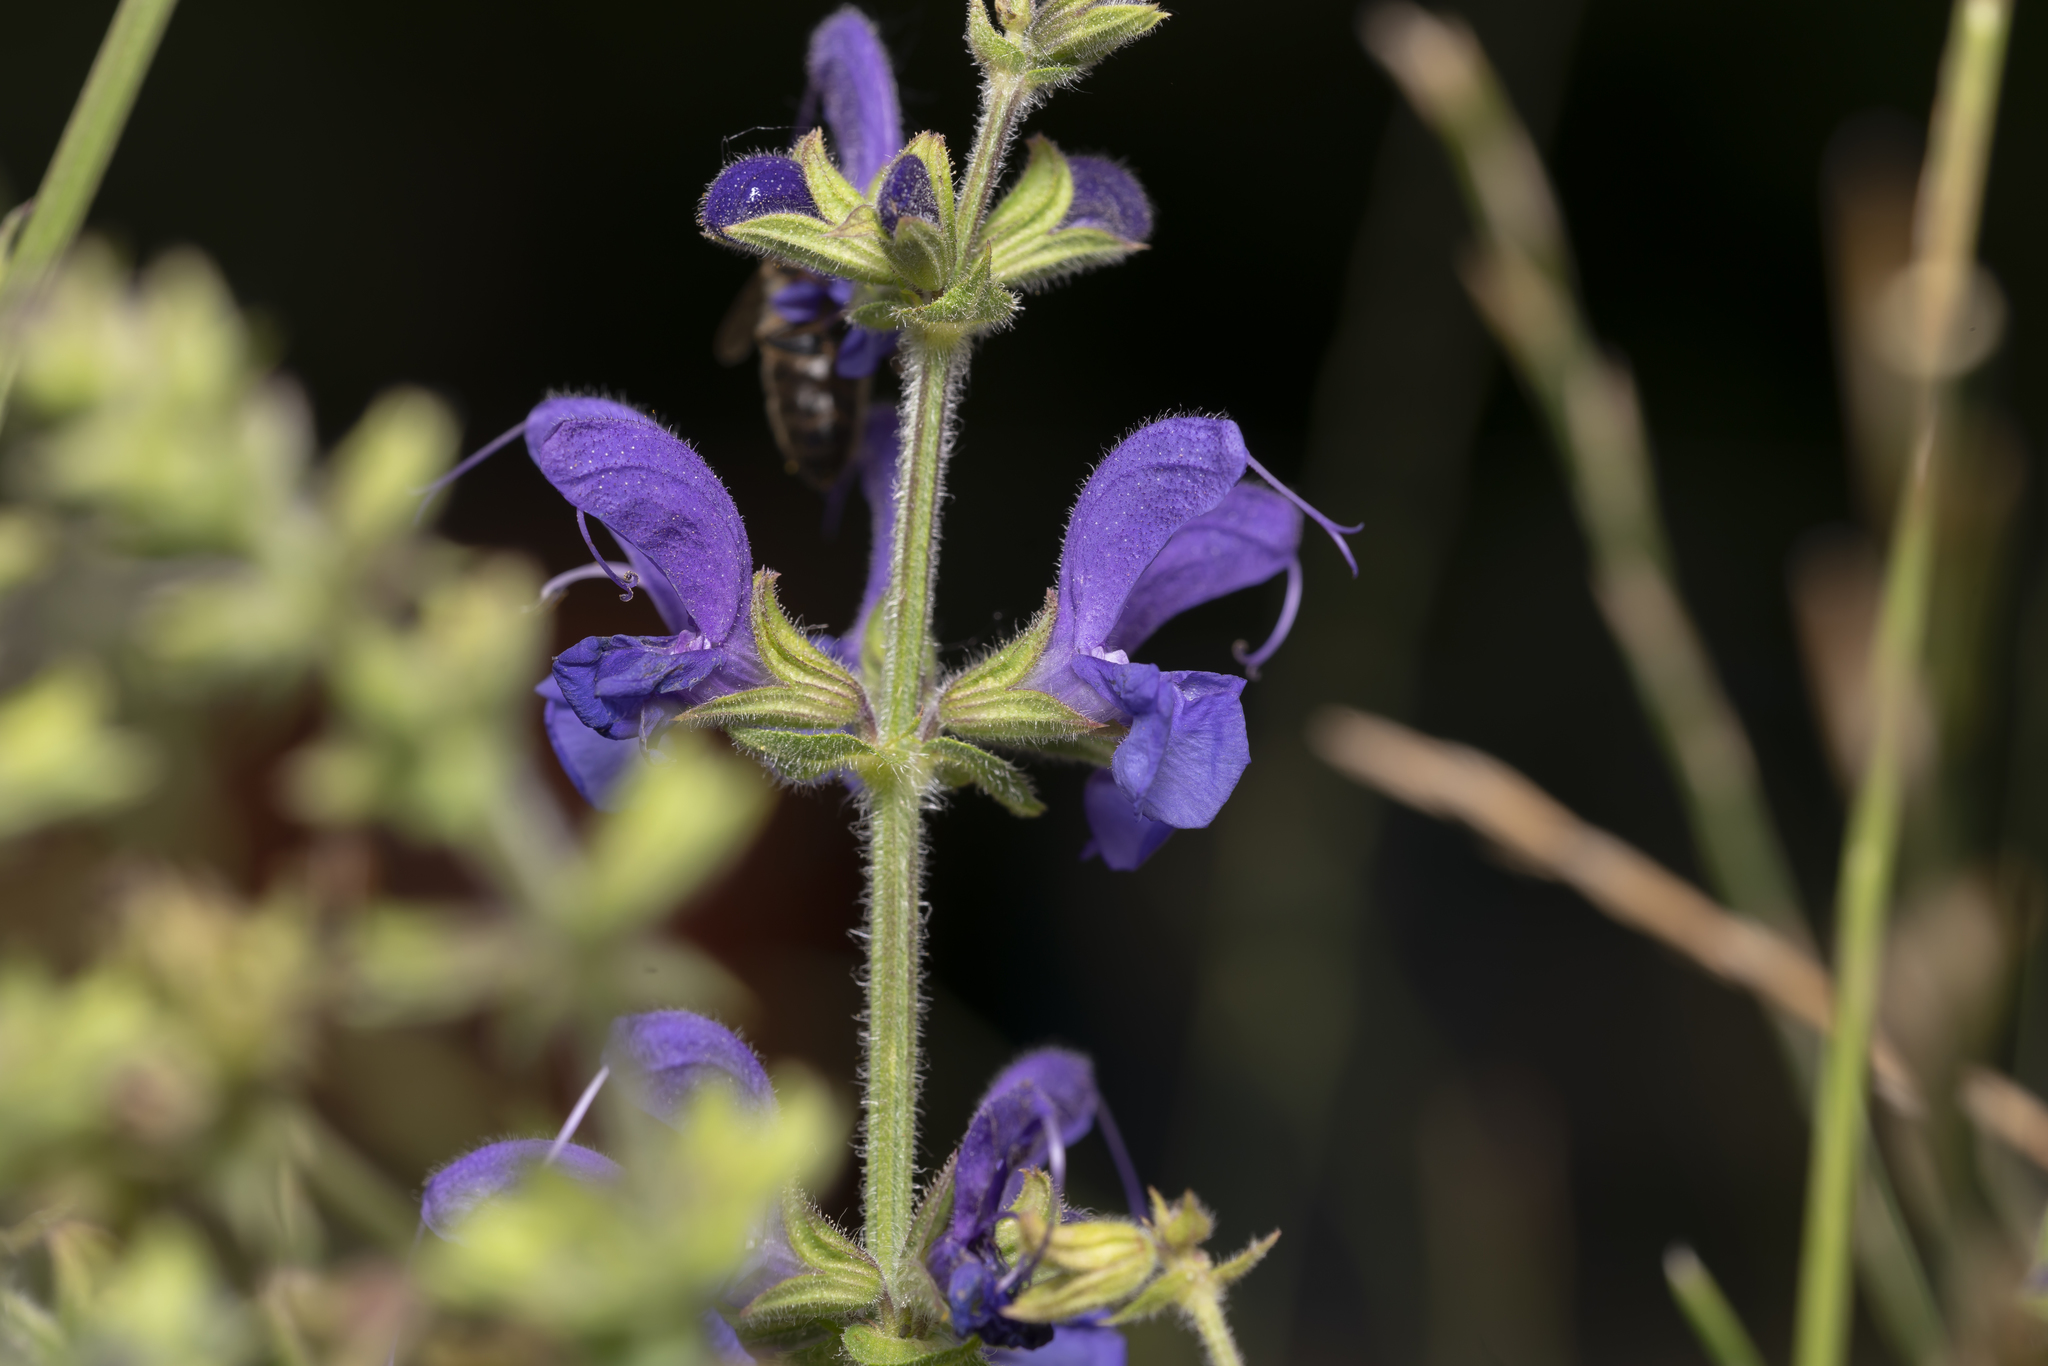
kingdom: Plantae
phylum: Tracheophyta
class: Magnoliopsida
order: Lamiales
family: Lamiaceae
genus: Salvia
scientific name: Salvia pratensis
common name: Meadow sage
